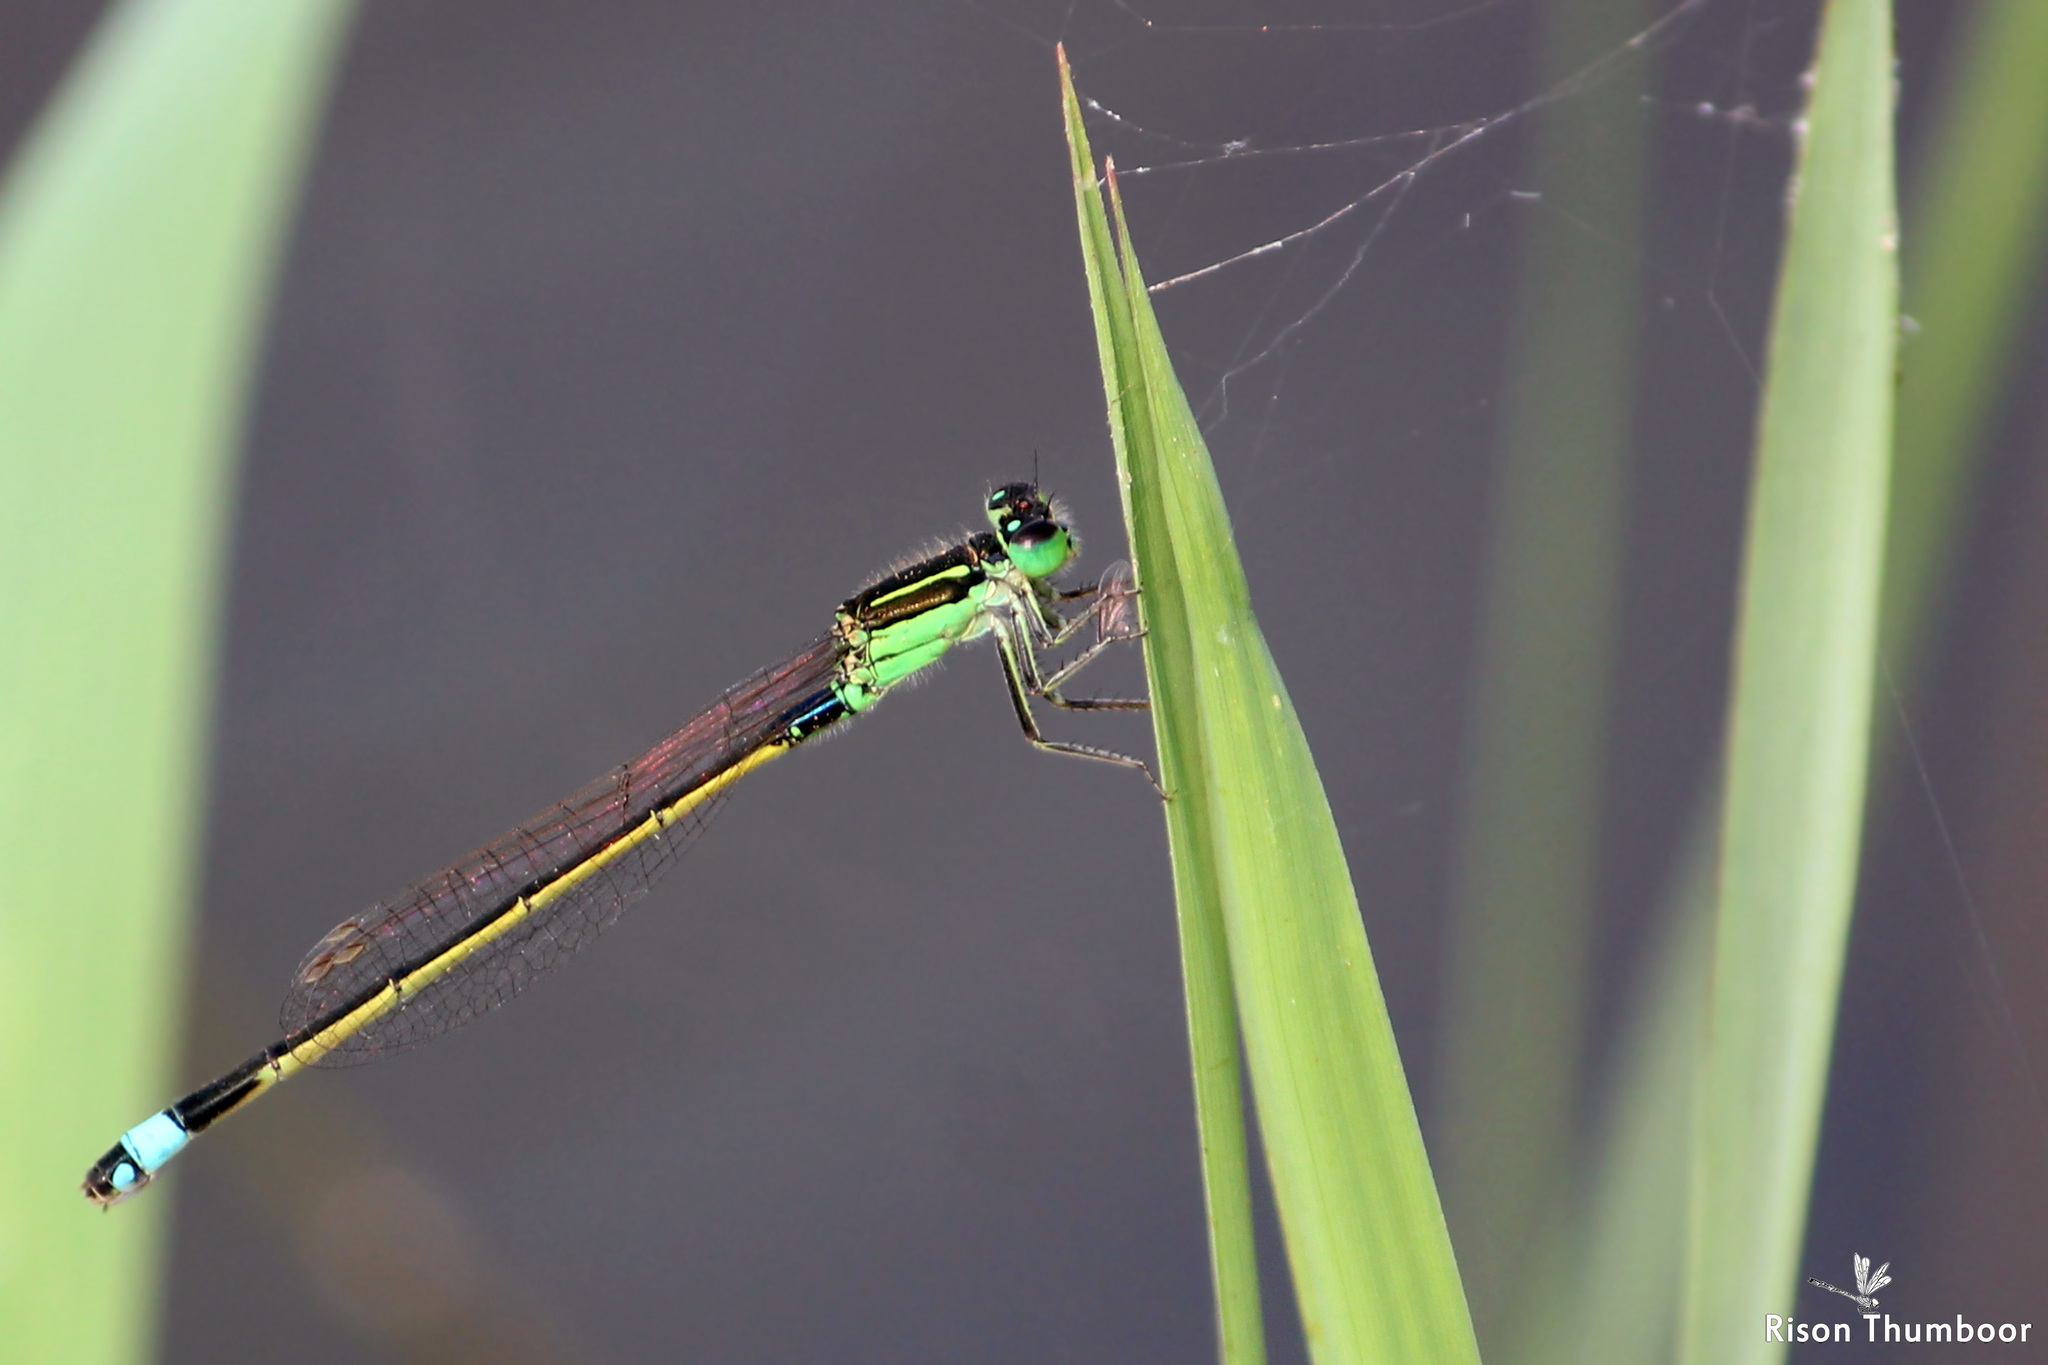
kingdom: Animalia
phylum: Arthropoda
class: Insecta
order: Odonata
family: Coenagrionidae
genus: Ischnura
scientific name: Ischnura senegalensis
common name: Tropical bluetail
